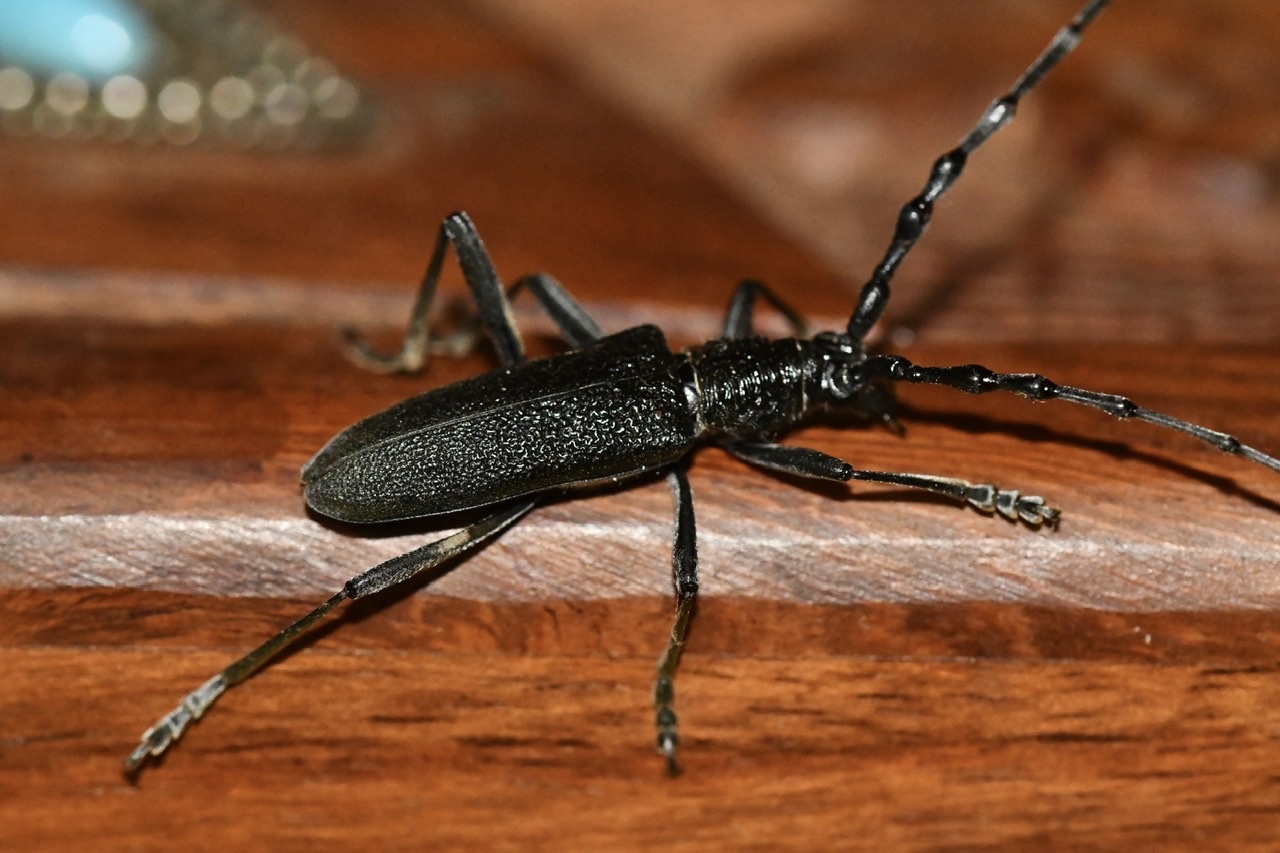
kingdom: Animalia
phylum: Arthropoda
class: Insecta
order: Coleoptera
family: Cerambycidae
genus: Cerambyx
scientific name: Cerambyx scopolii
